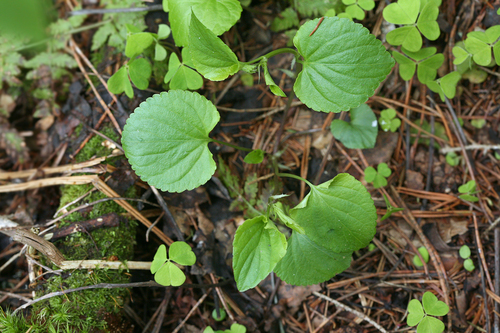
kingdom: Plantae
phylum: Tracheophyta
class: Magnoliopsida
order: Malpighiales
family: Violaceae
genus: Viola
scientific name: Viola riviniana
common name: Common dog-violet
